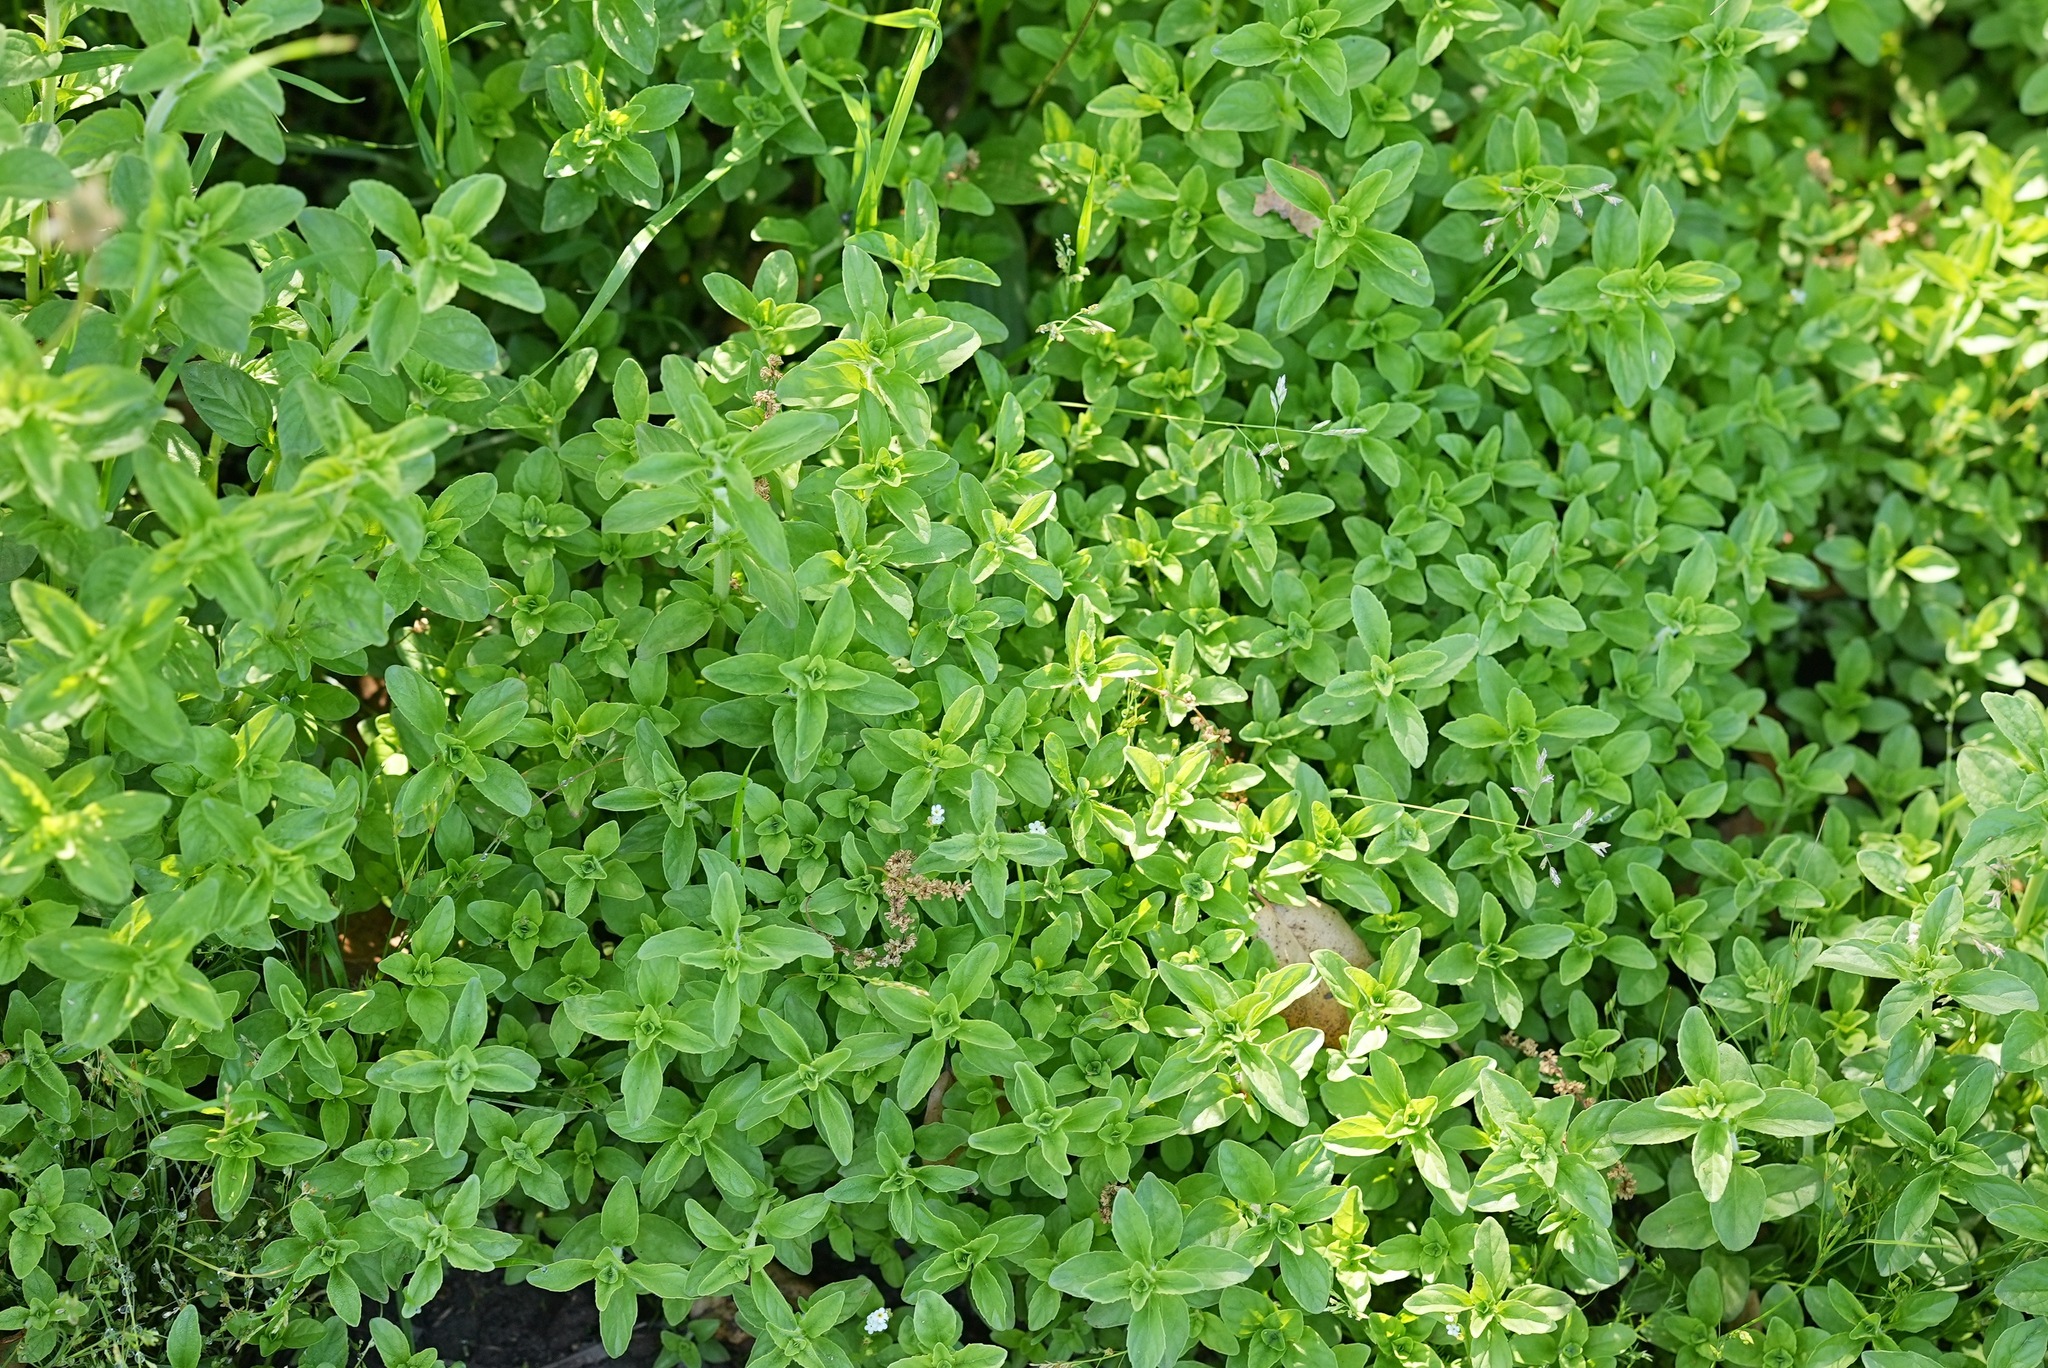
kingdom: Plantae
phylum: Tracheophyta
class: Magnoliopsida
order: Lamiales
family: Lamiaceae
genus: Mentha
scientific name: Mentha pulegium
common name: Pennyroyal
